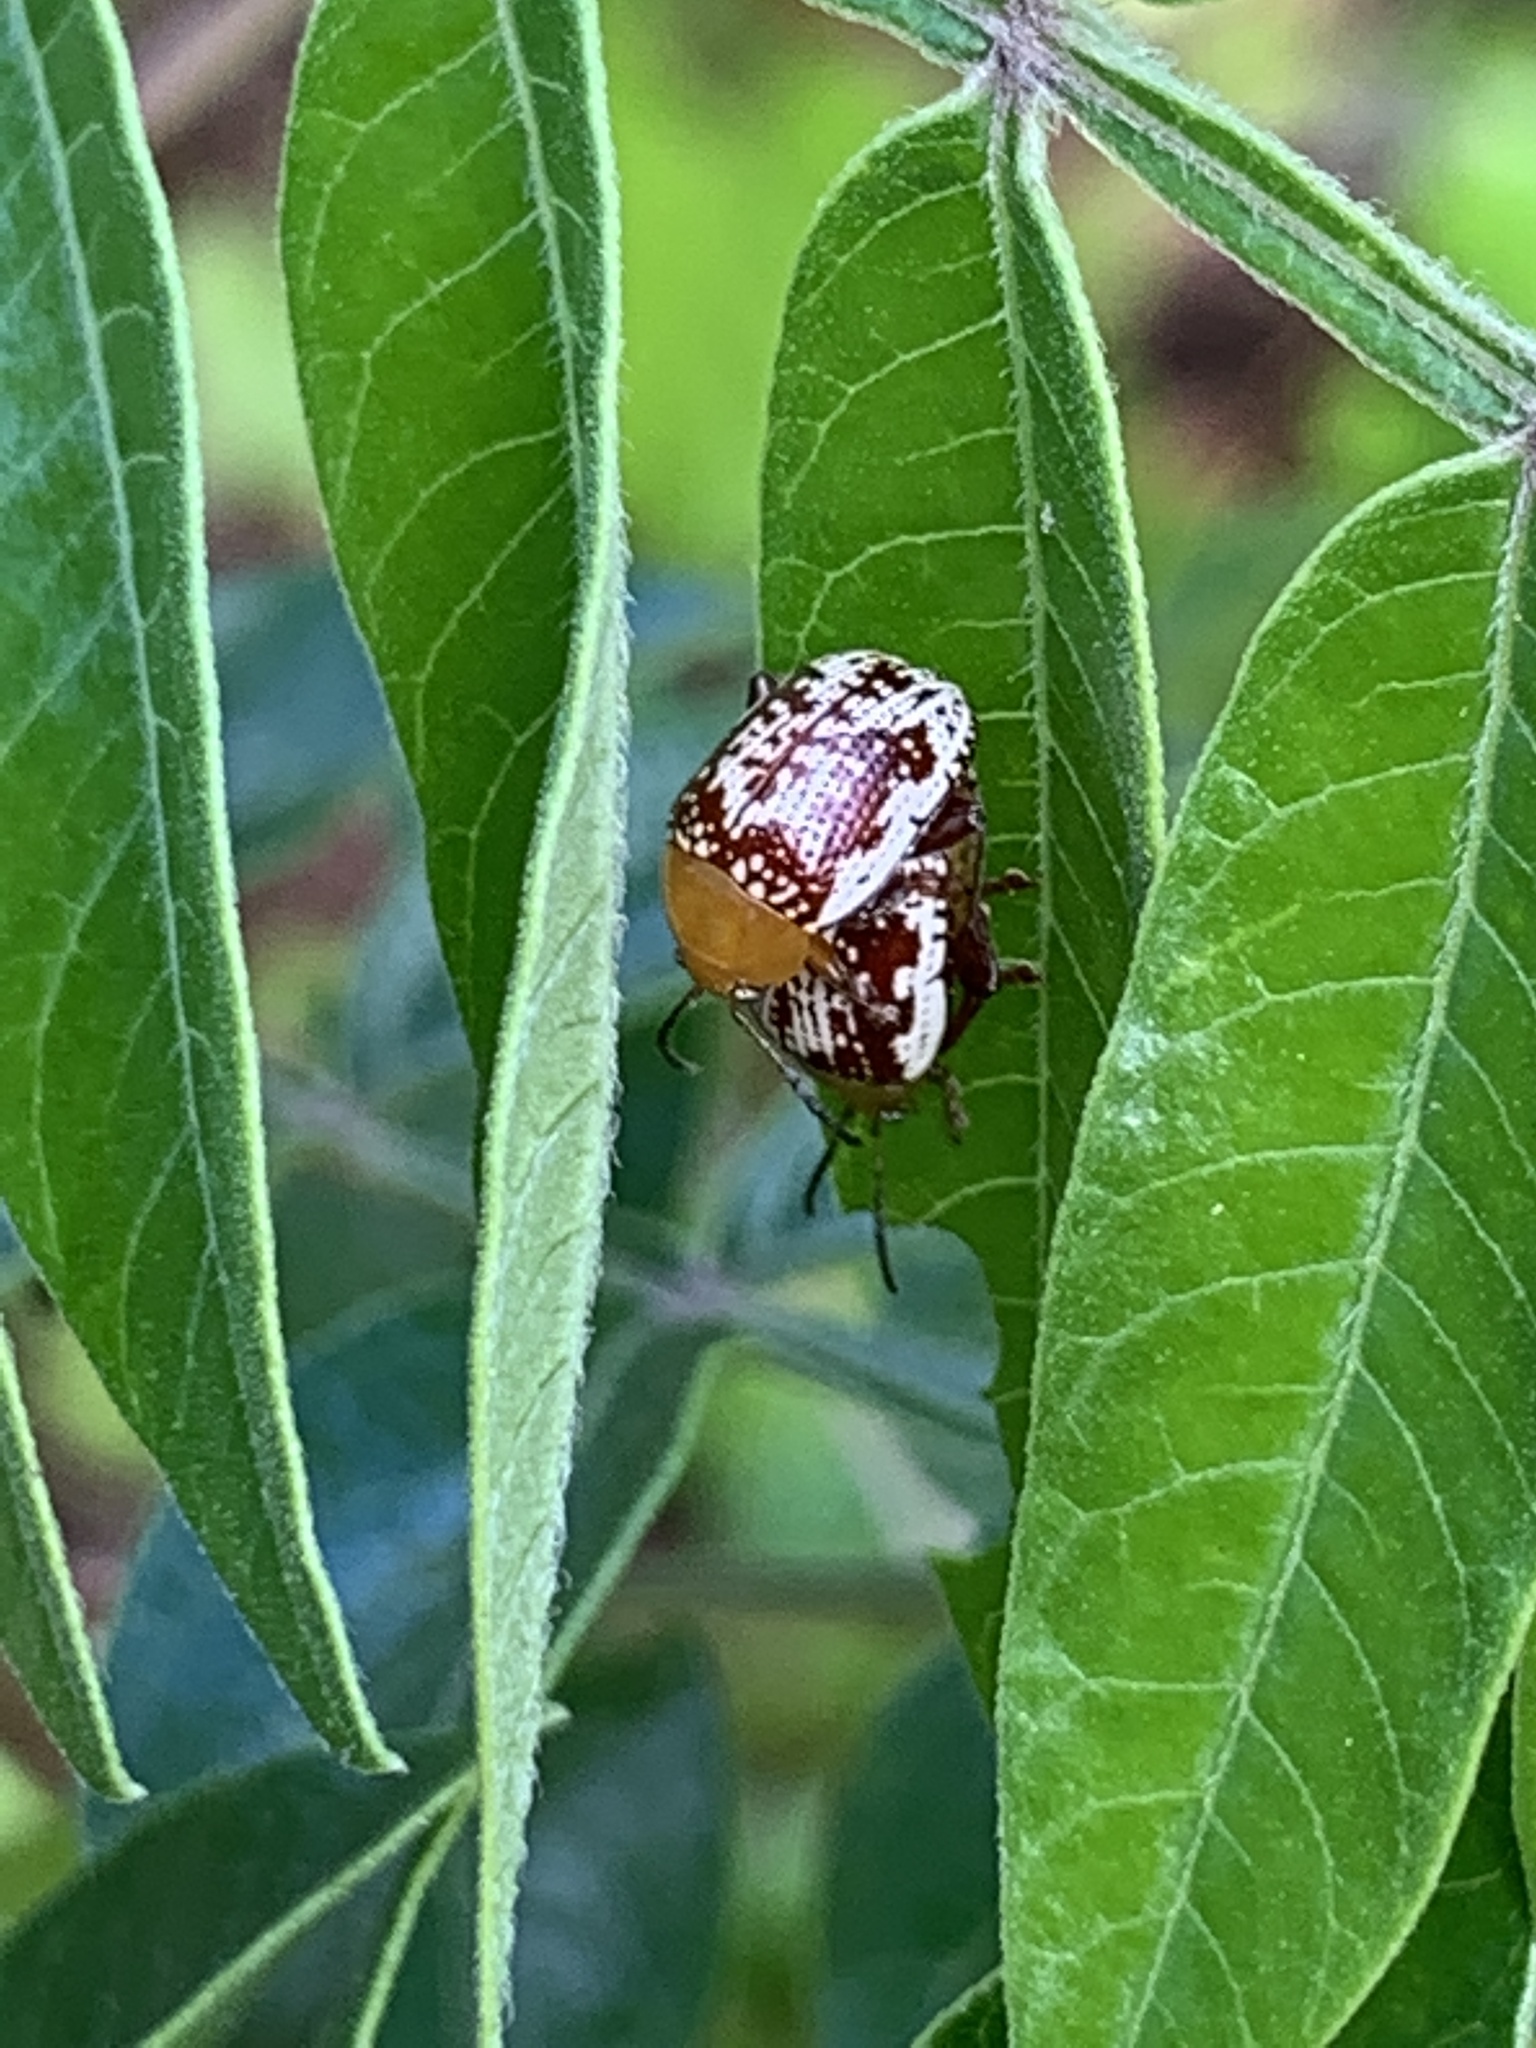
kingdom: Animalia
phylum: Arthropoda
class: Insecta
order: Coleoptera
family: Chrysomelidae
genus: Blepharida
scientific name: Blepharida rhois
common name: Sumac flea beetle
